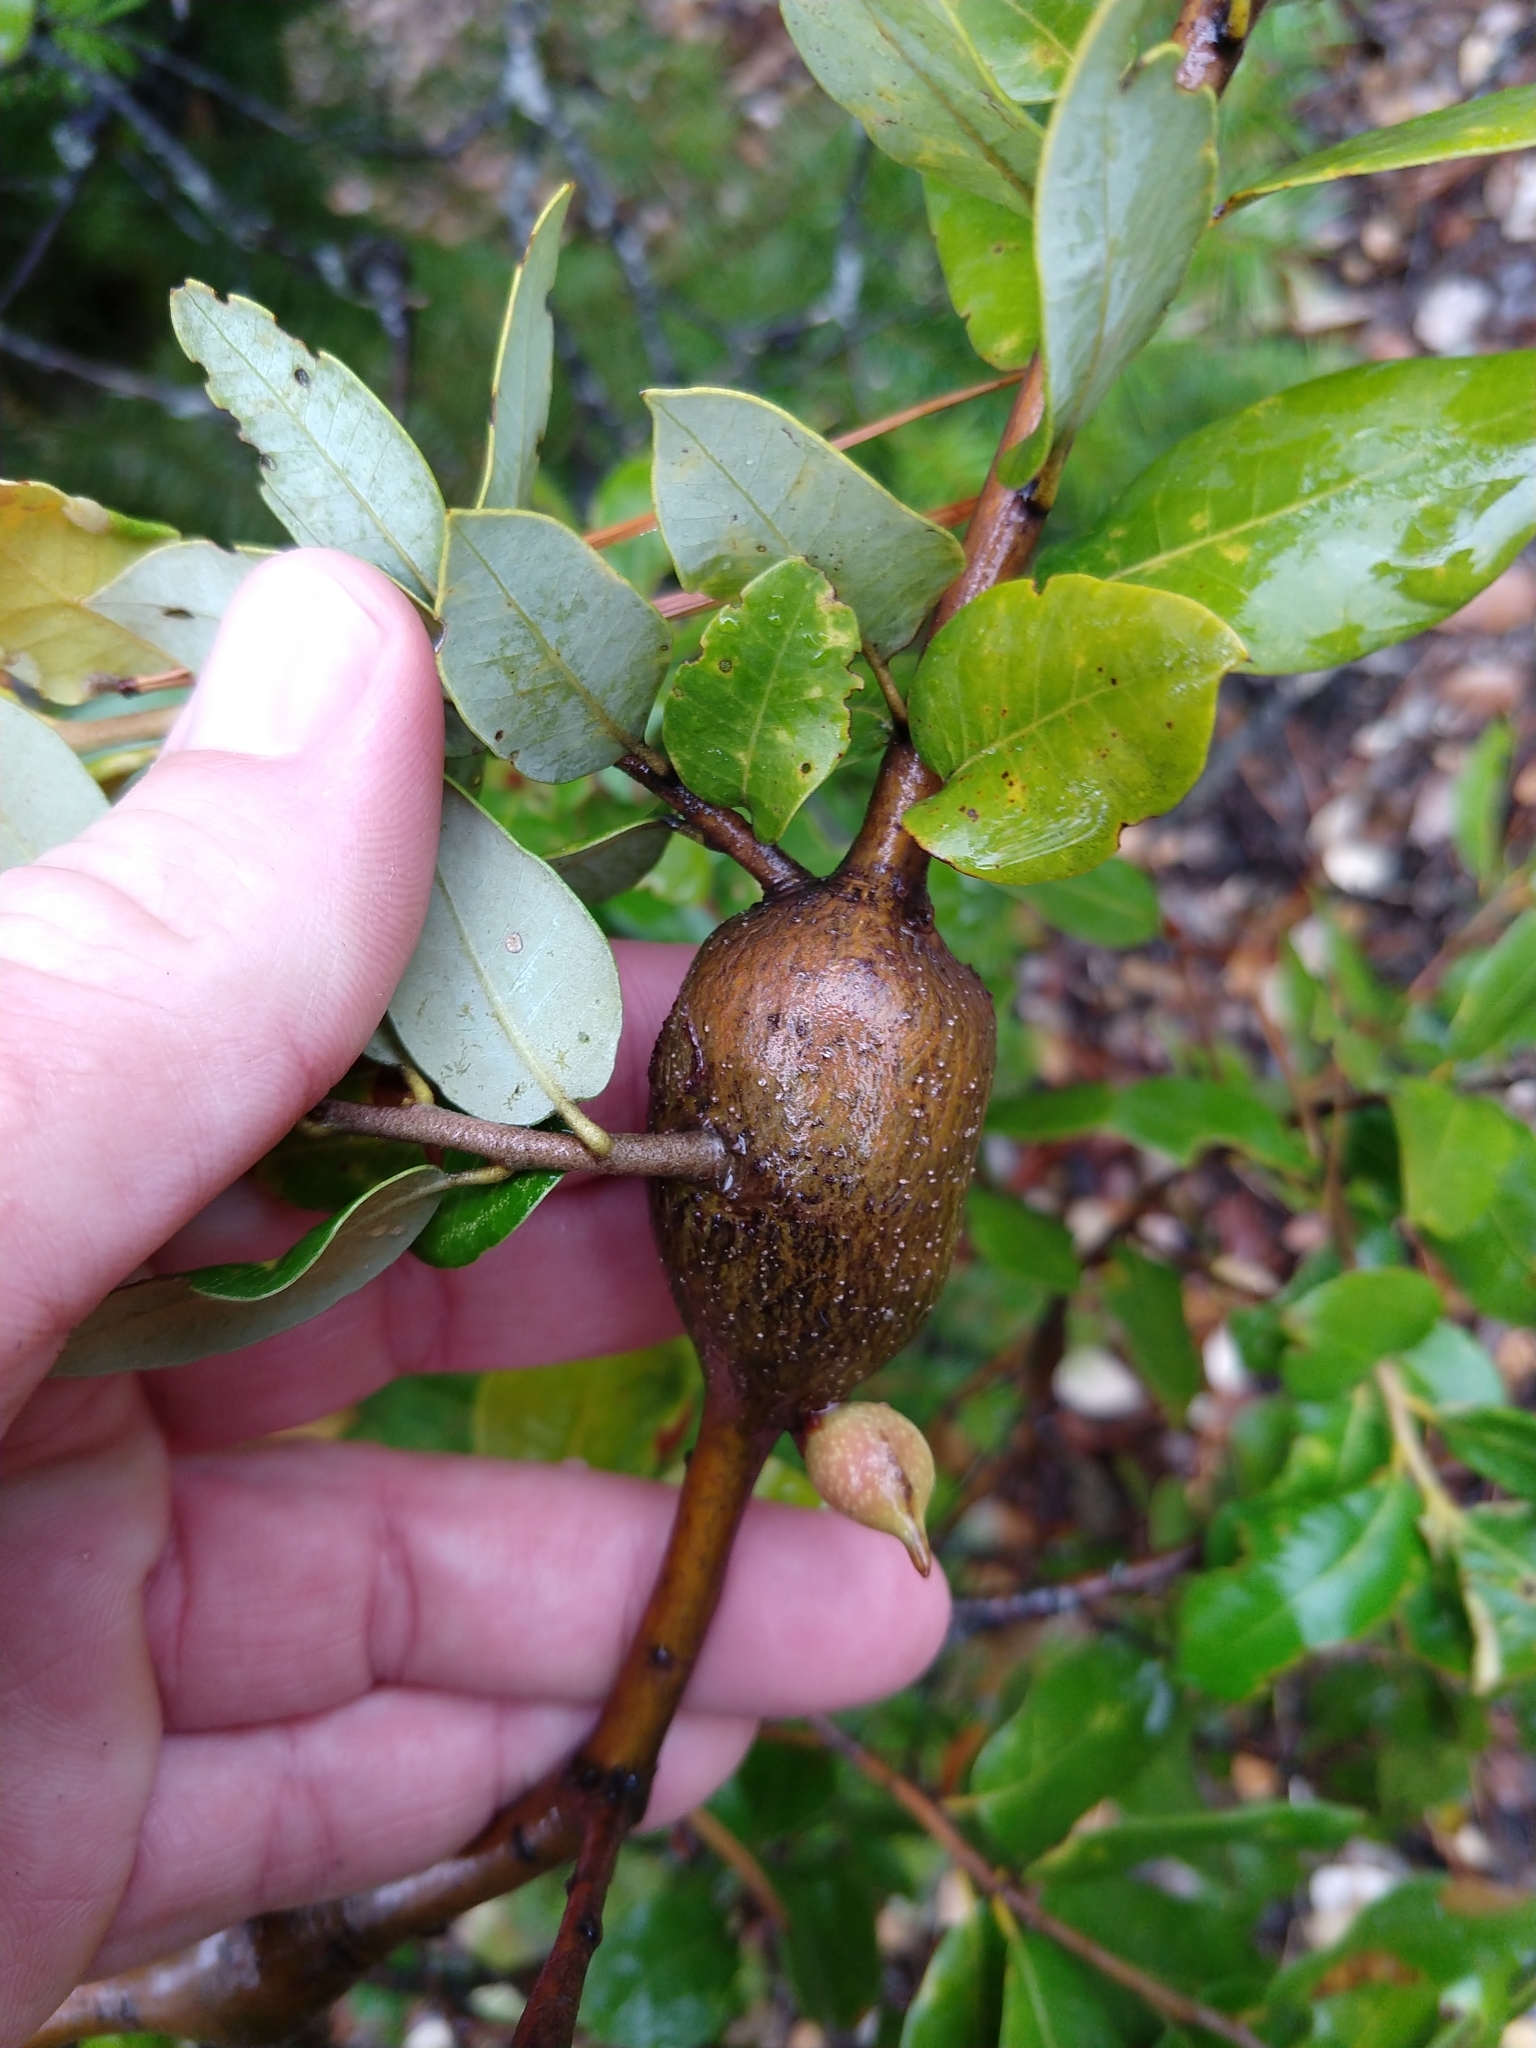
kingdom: Animalia
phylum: Arthropoda
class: Insecta
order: Hymenoptera
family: Cynipidae
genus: Disholcaspis
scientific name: Disholcaspis spectabilis
